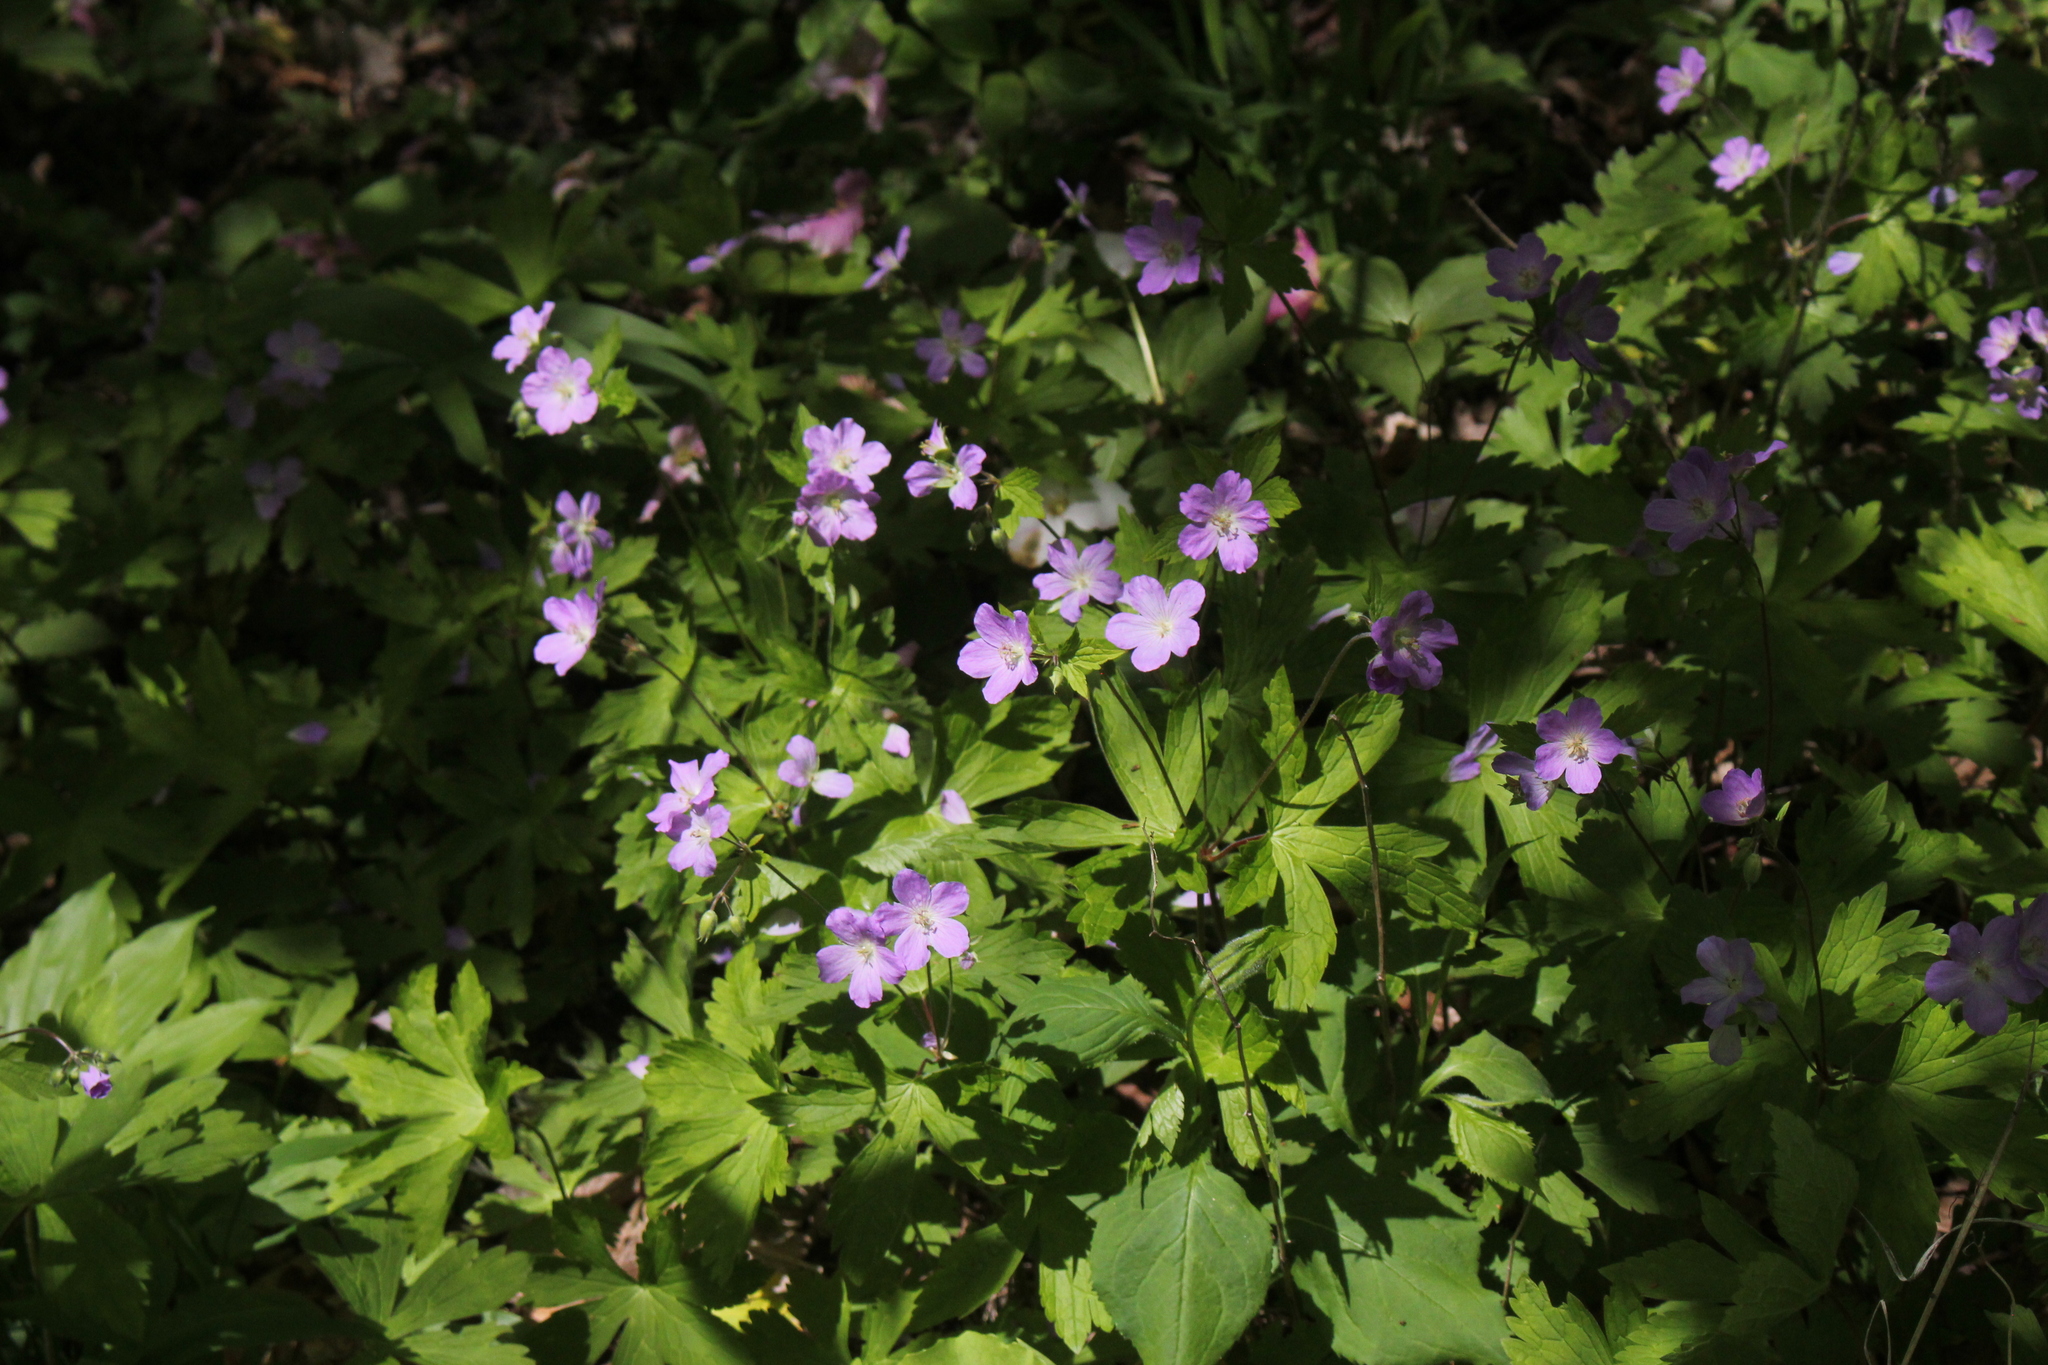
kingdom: Plantae
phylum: Tracheophyta
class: Magnoliopsida
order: Geraniales
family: Geraniaceae
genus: Geranium
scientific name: Geranium maculatum
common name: Spotted geranium
